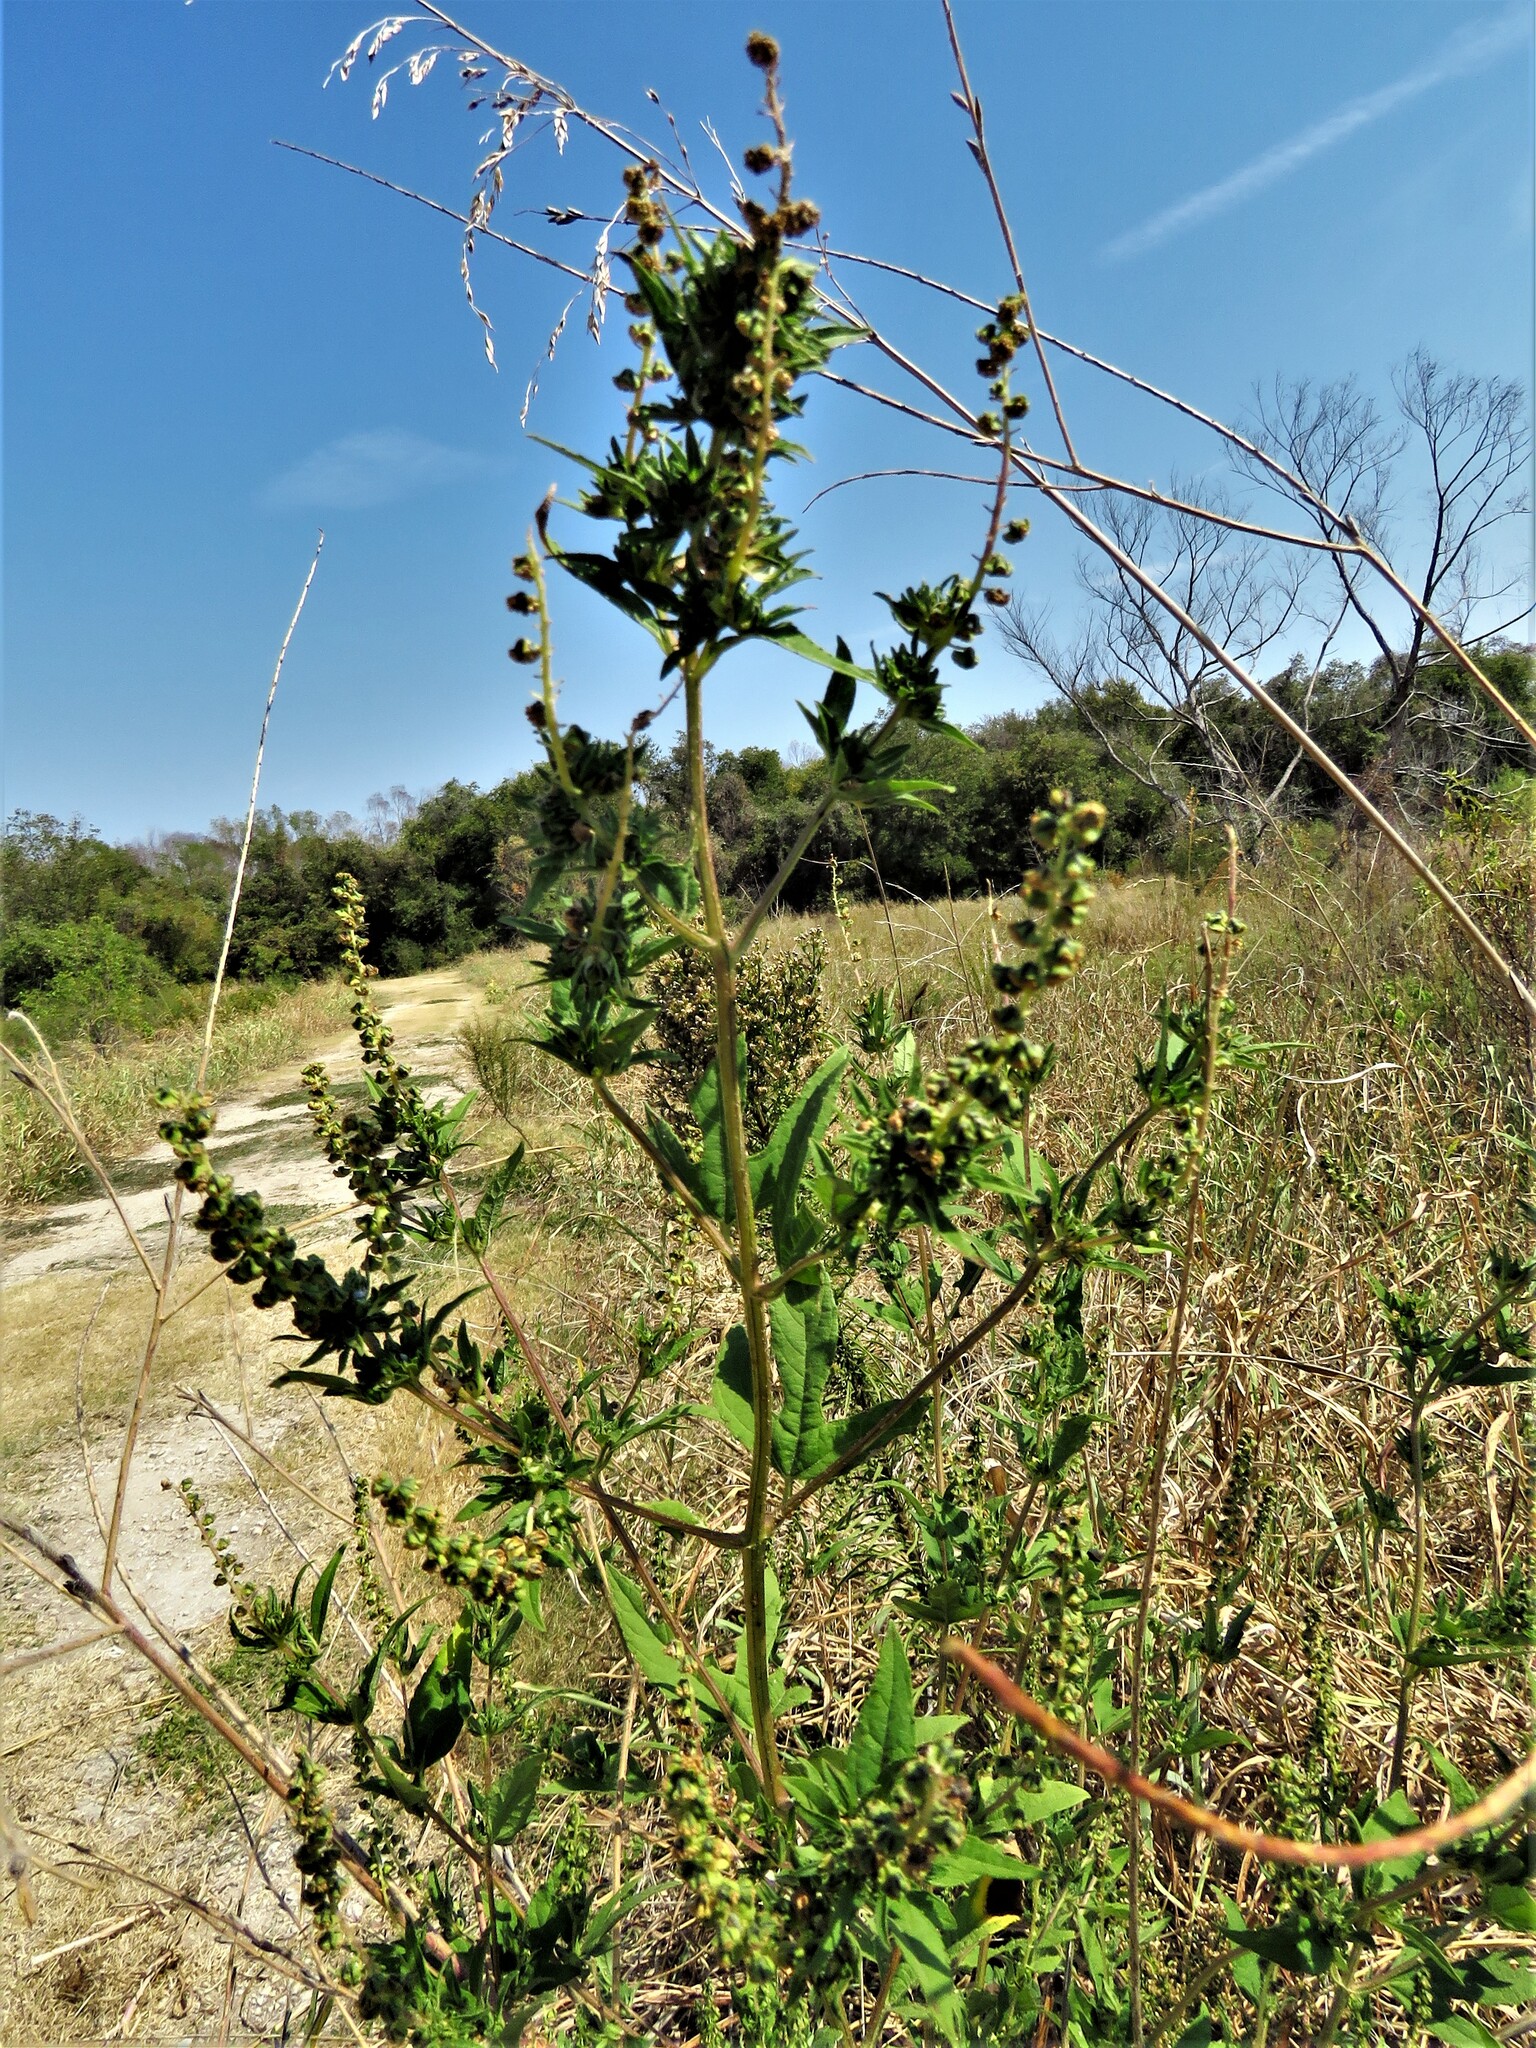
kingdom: Plantae
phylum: Tracheophyta
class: Magnoliopsida
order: Asterales
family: Asteraceae
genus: Ambrosia
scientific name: Ambrosia trifida
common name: Giant ragweed
